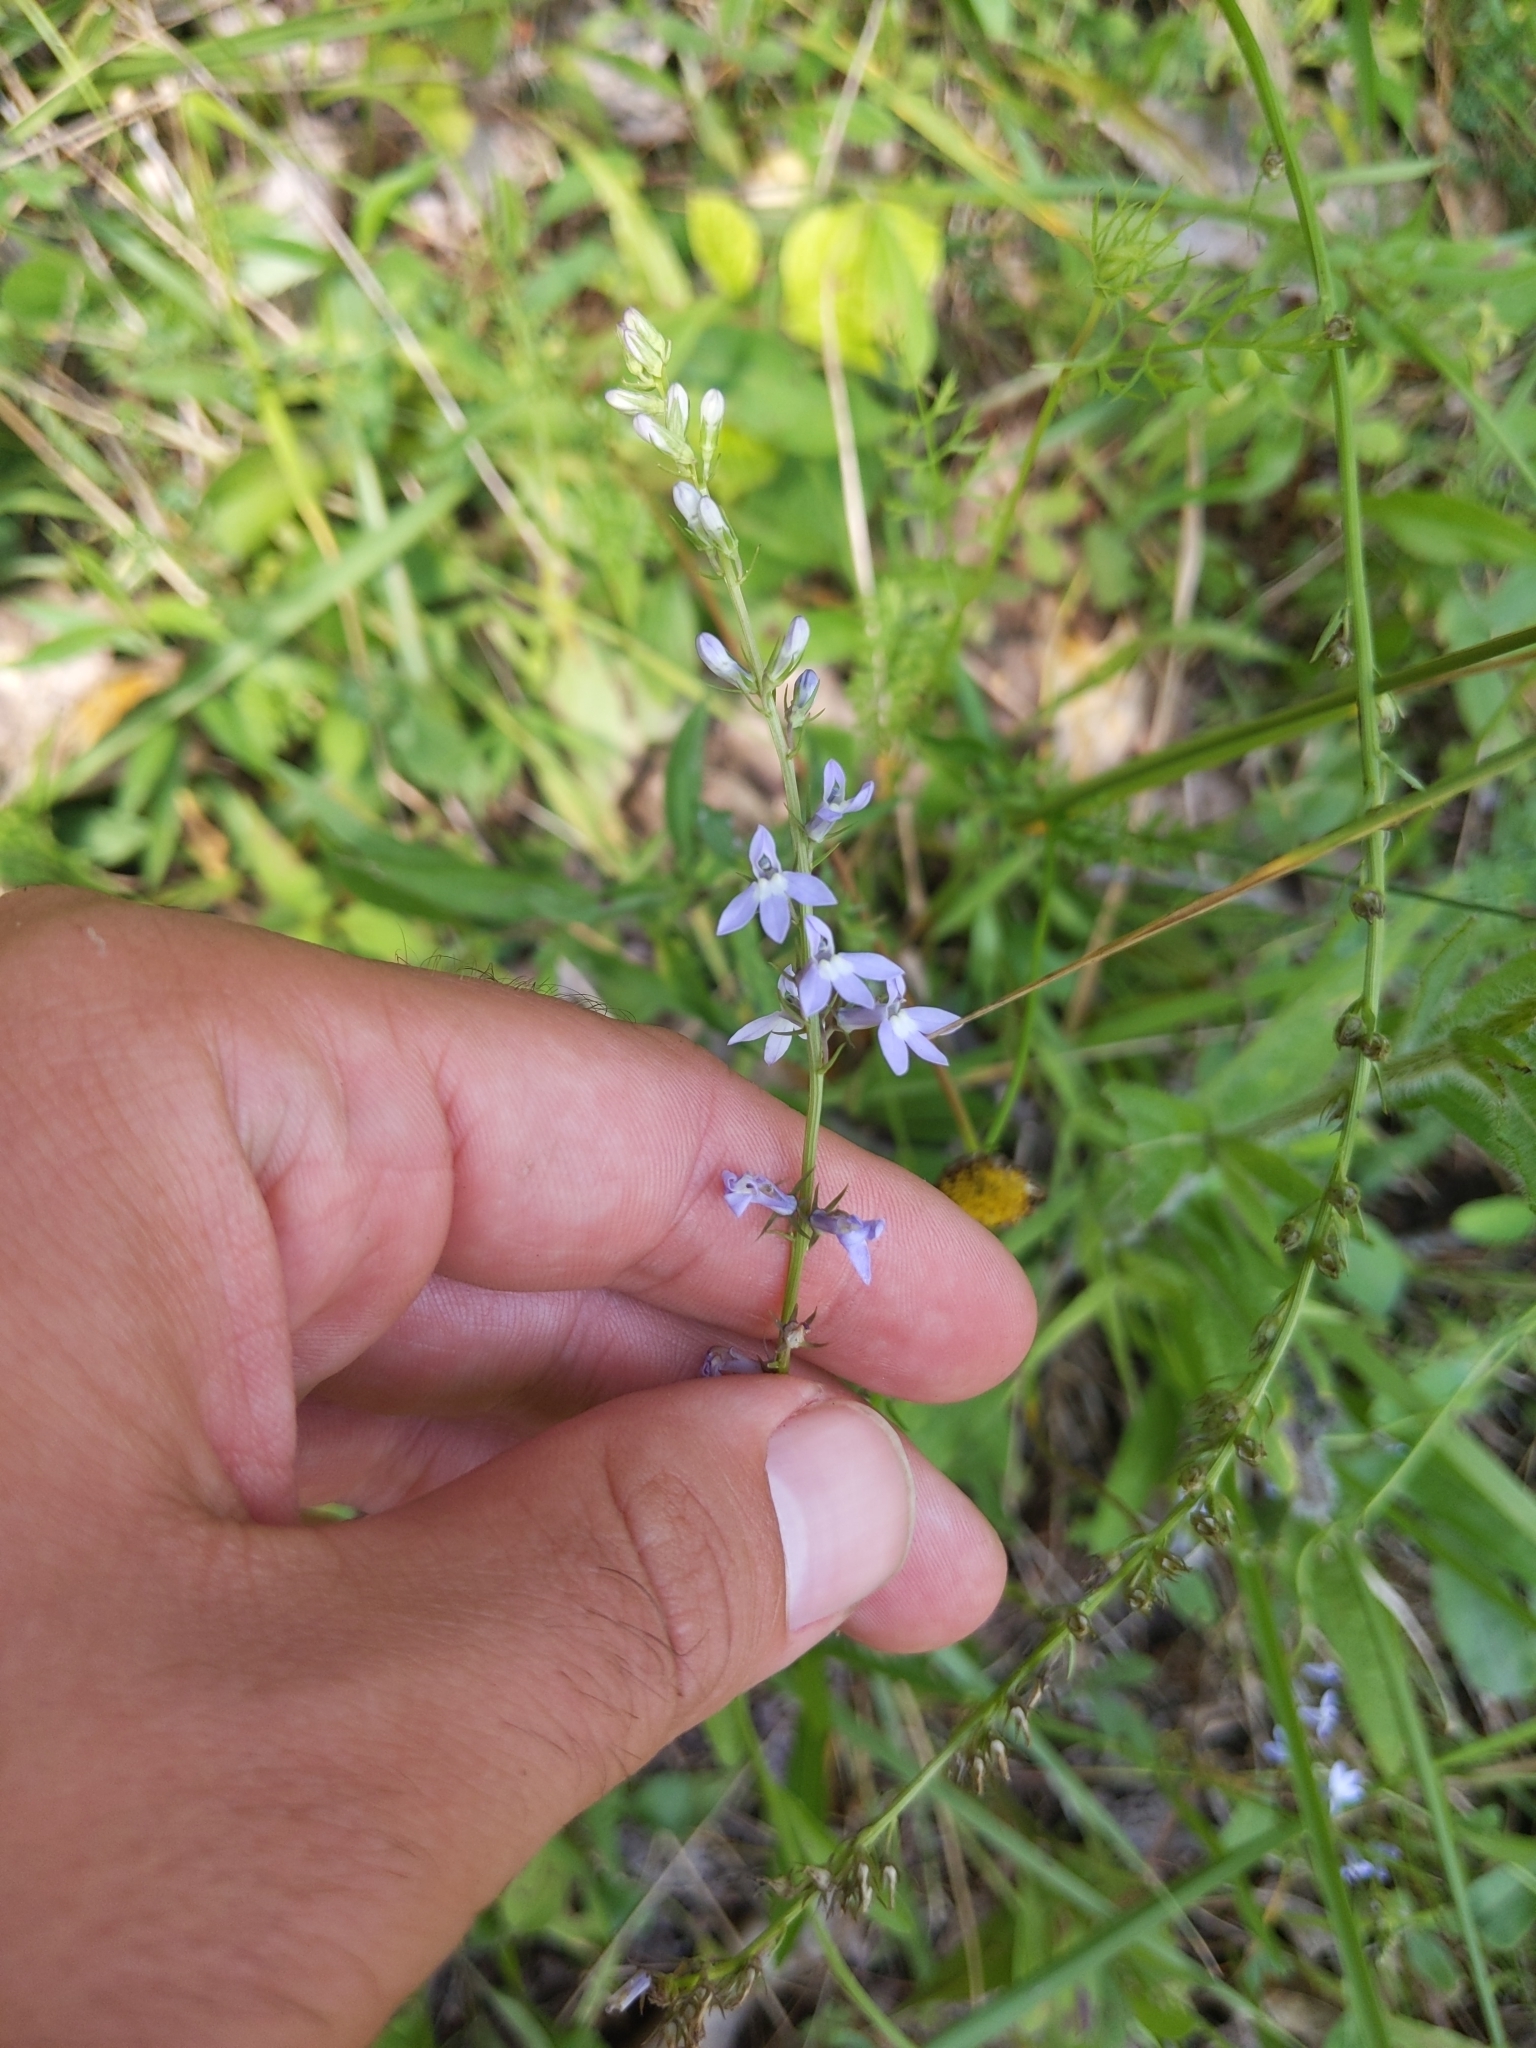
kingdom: Plantae
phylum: Tracheophyta
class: Magnoliopsida
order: Asterales
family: Campanulaceae
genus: Lobelia
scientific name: Lobelia spicata
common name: Pale-spike lobelia
